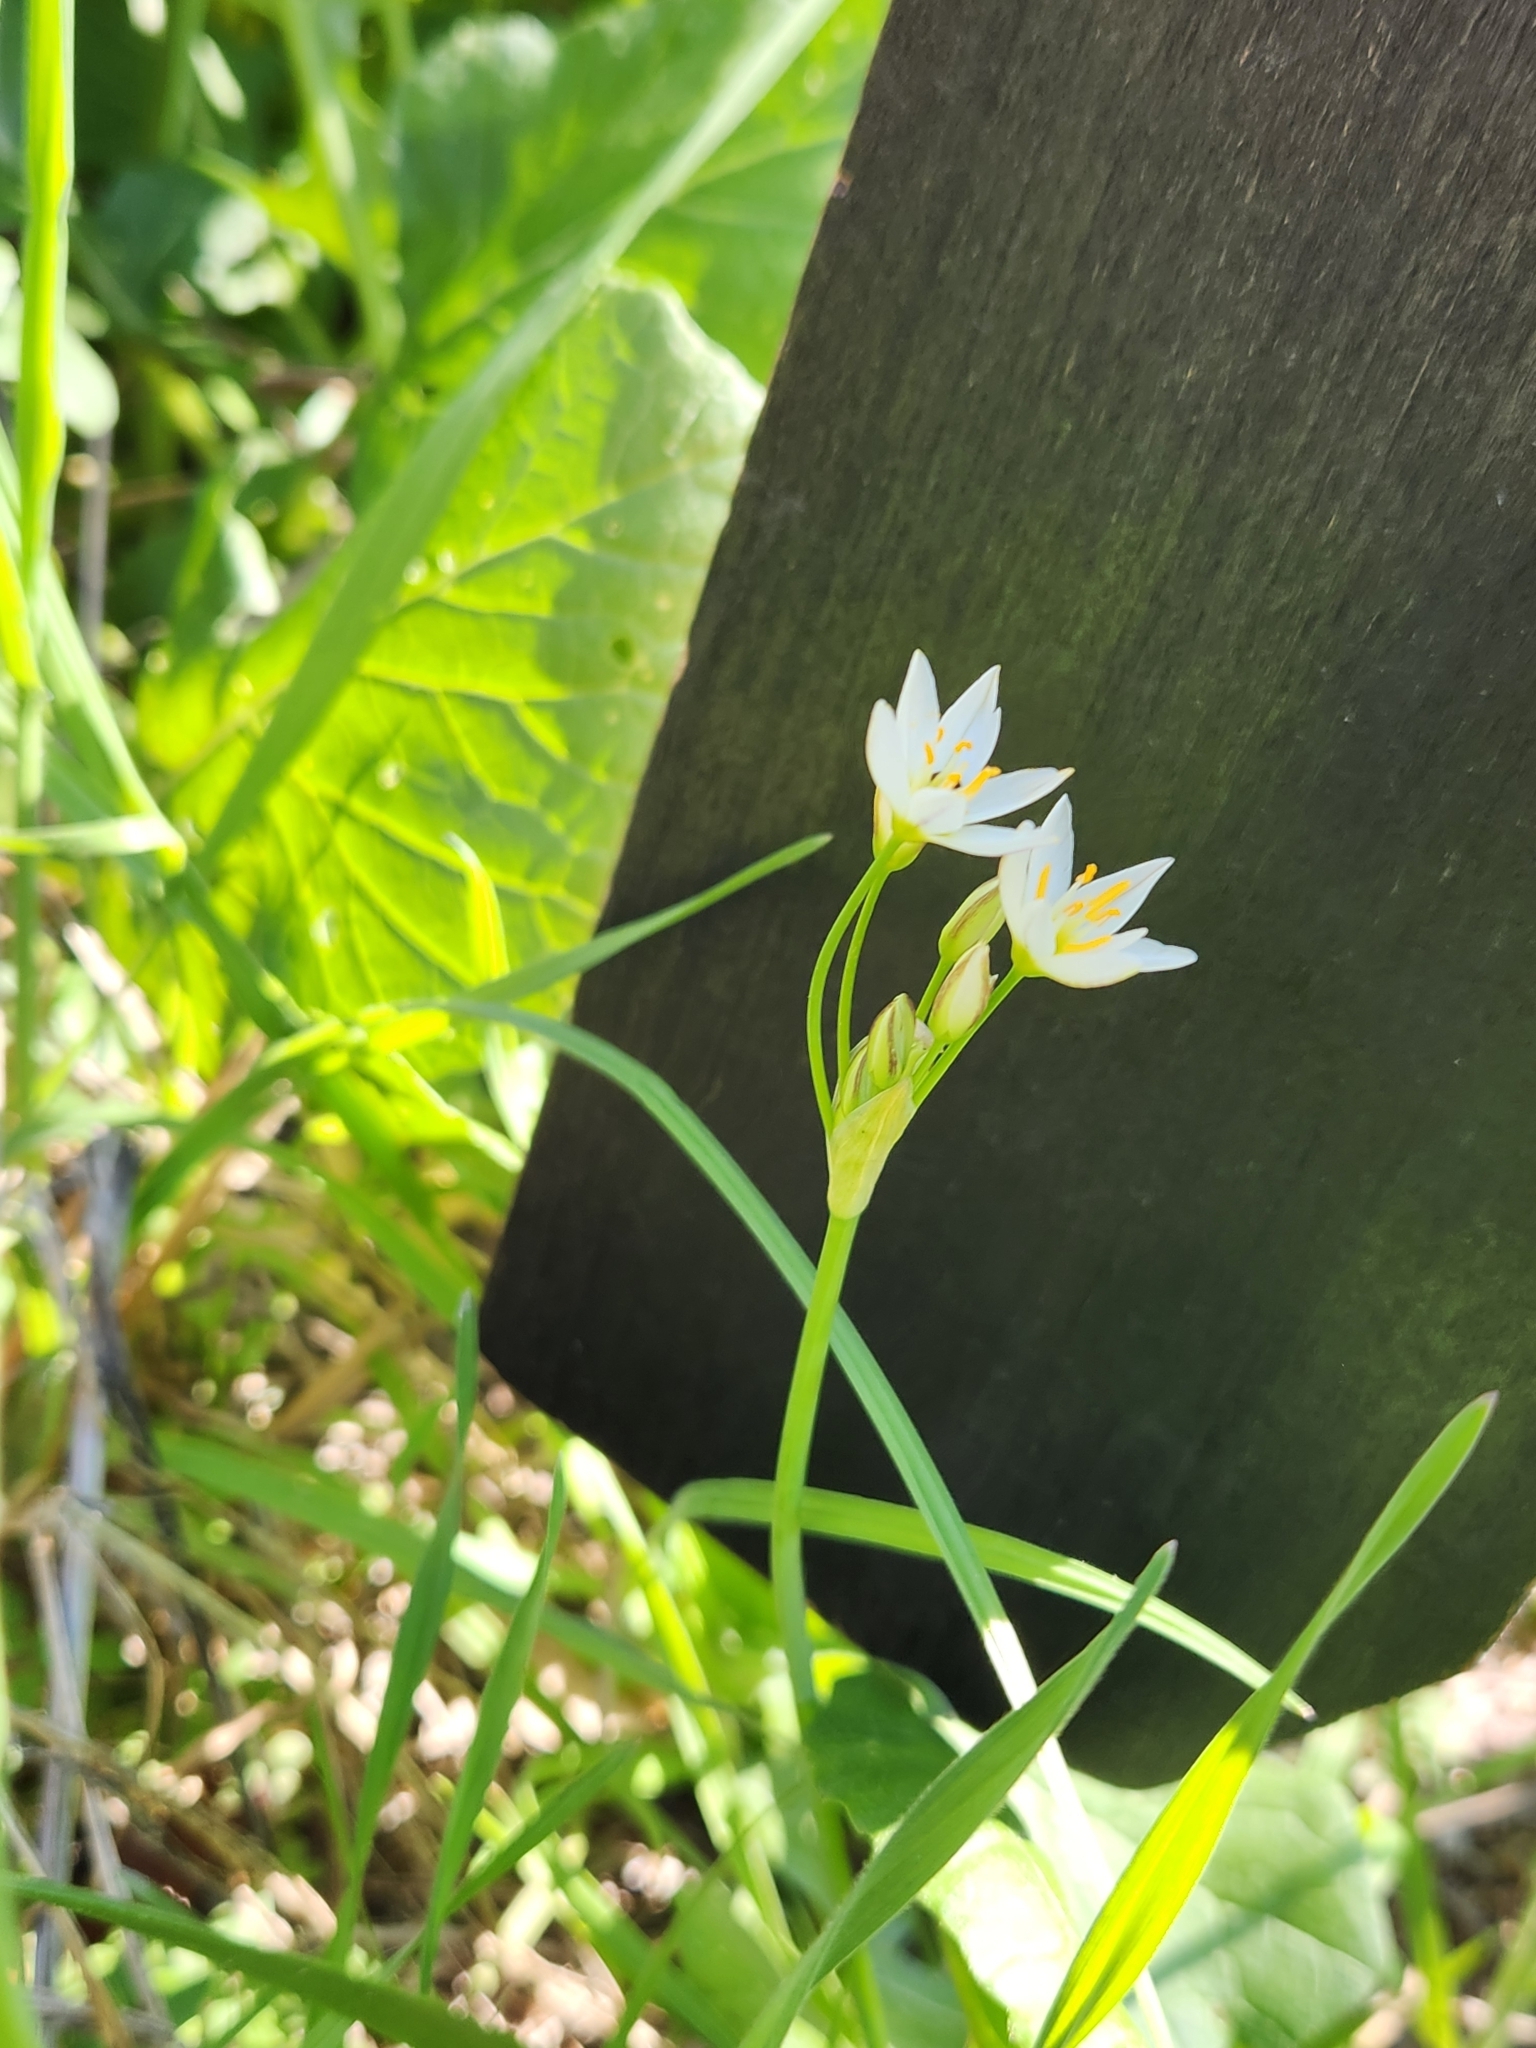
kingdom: Plantae
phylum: Tracheophyta
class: Liliopsida
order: Asparagales
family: Amaryllidaceae
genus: Nothoscordum
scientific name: Nothoscordum bivalve
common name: Crow-poison
